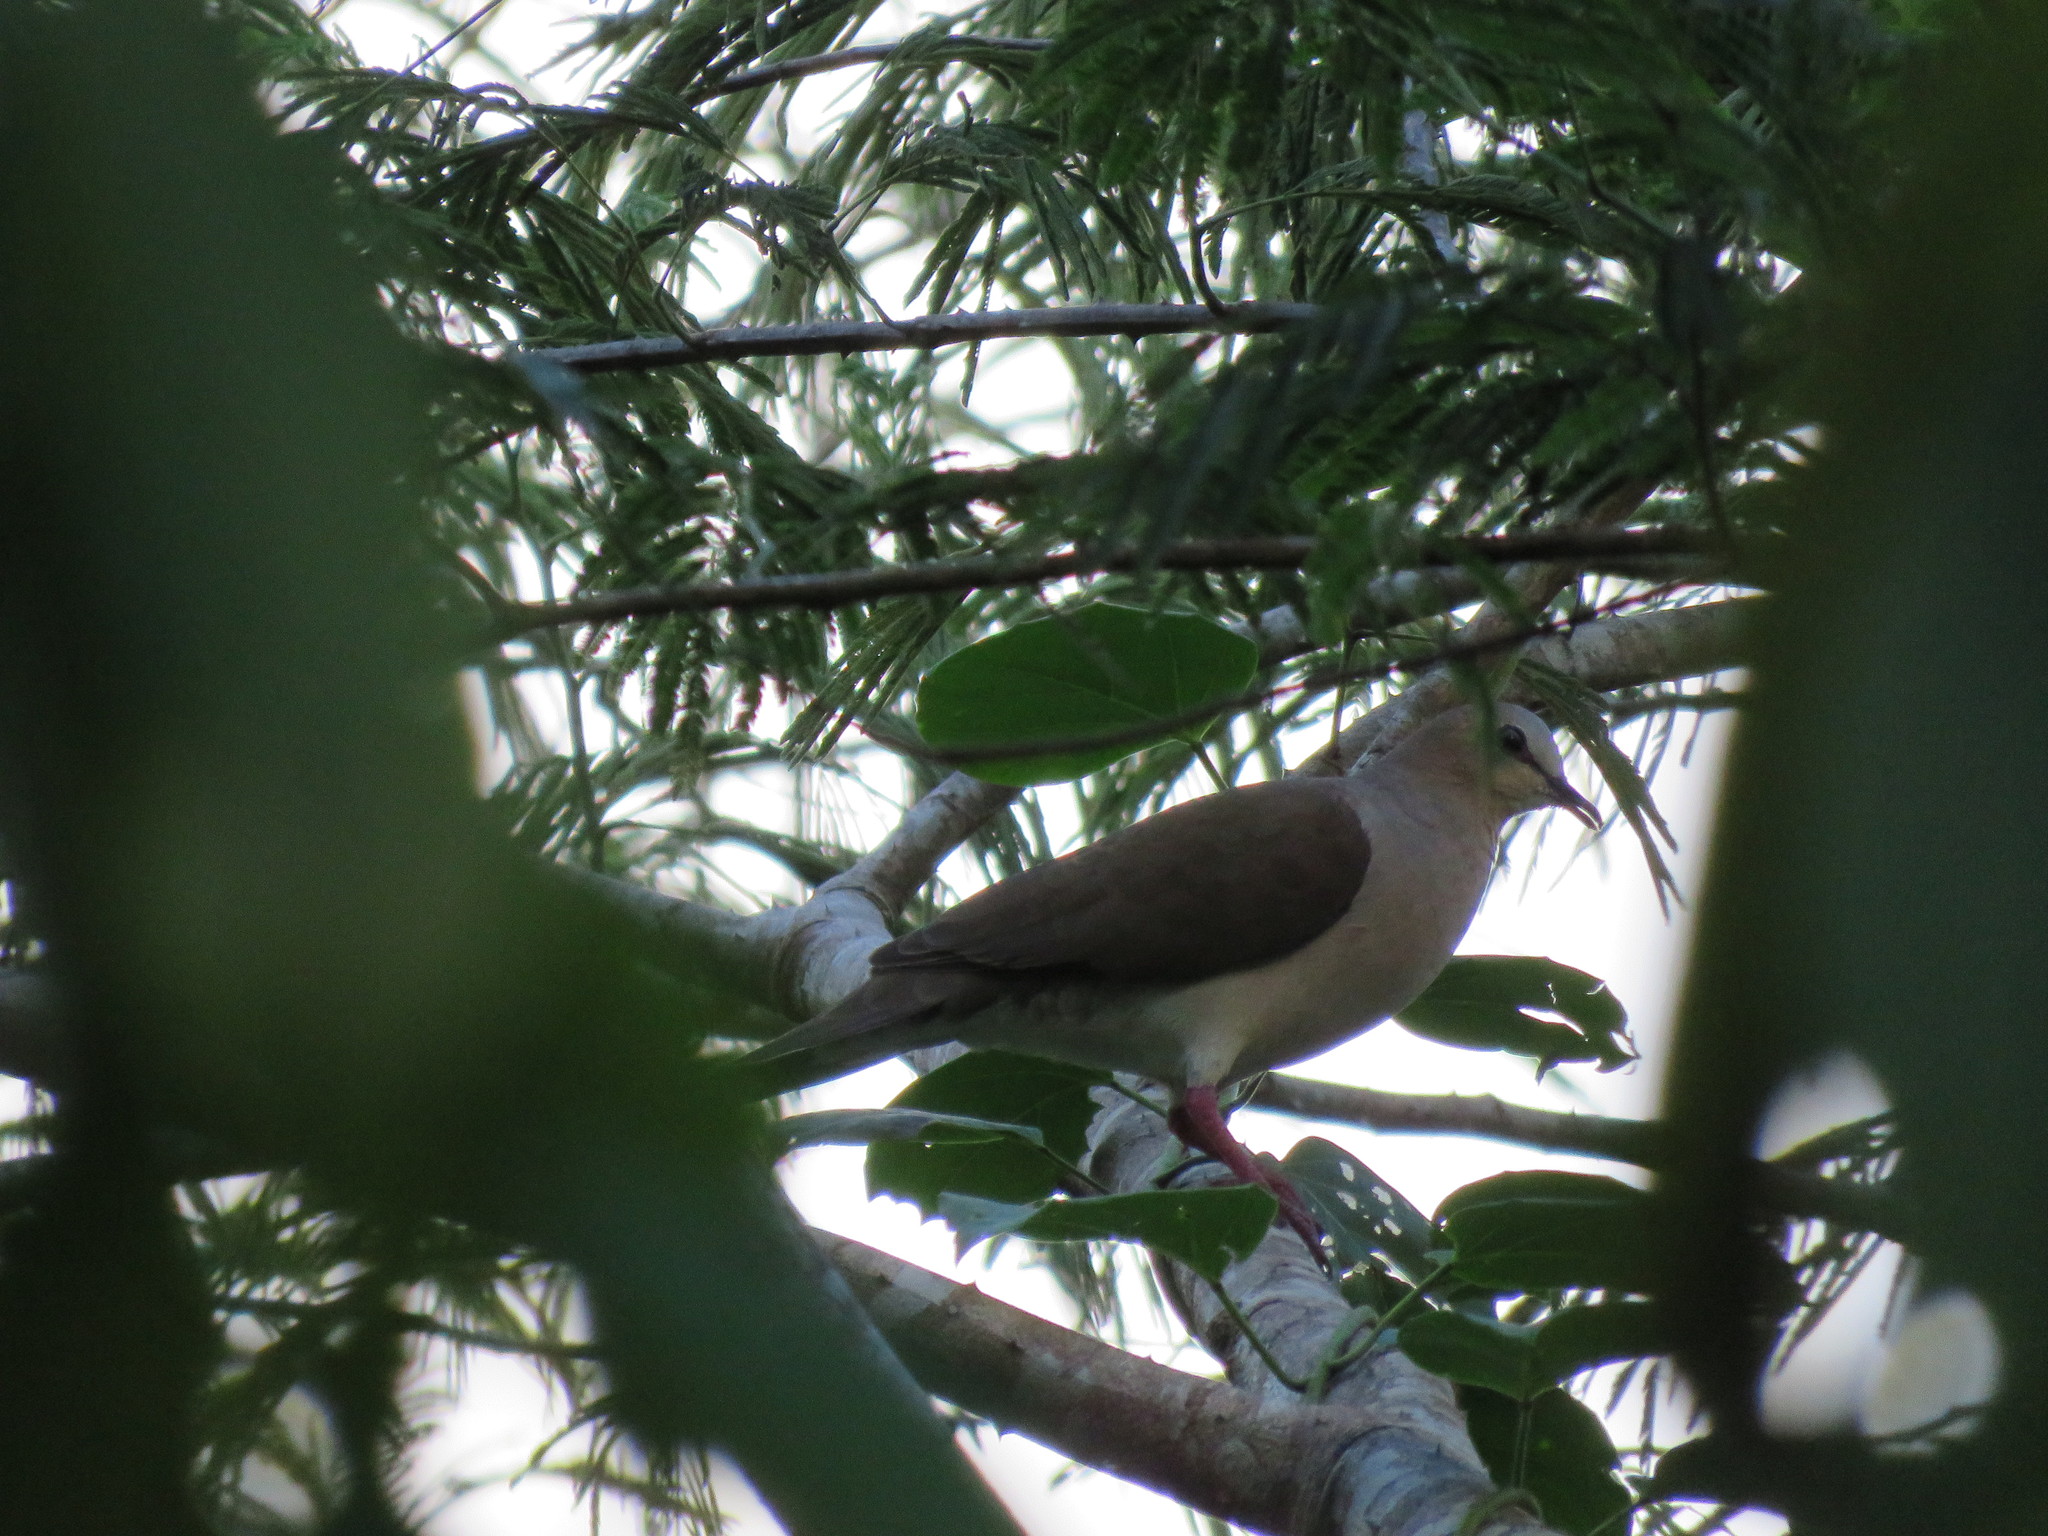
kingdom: Animalia
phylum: Chordata
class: Aves
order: Columbiformes
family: Columbidae
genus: Leptotila
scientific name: Leptotila verreauxi
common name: White-tipped dove
